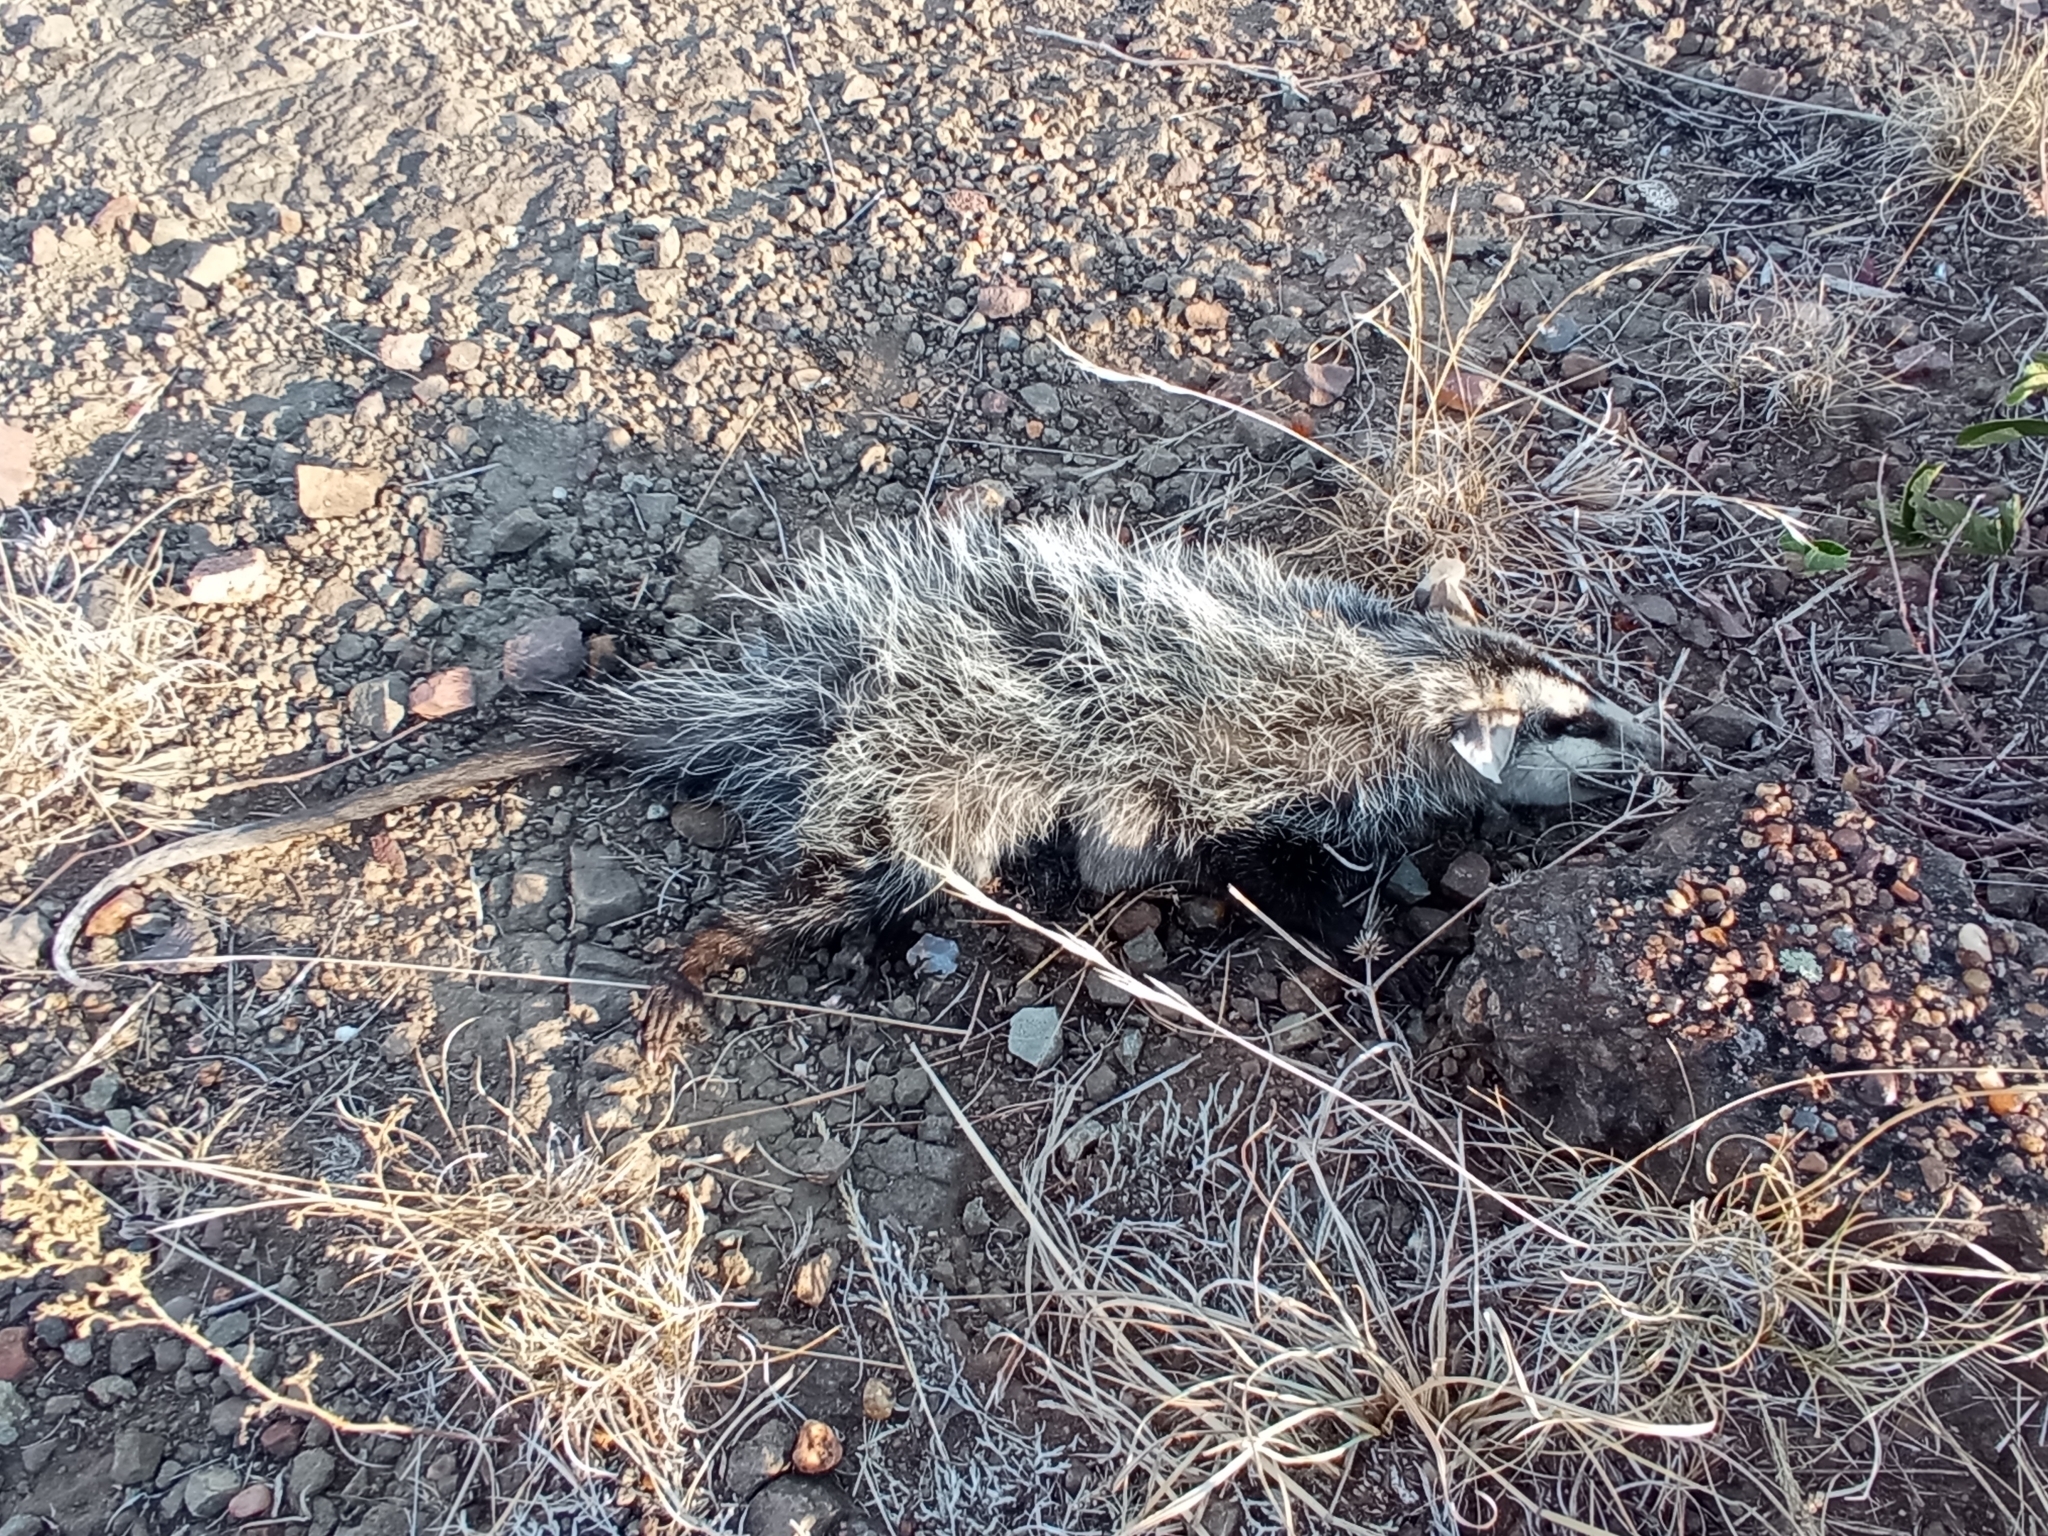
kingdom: Animalia
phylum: Chordata
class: Mammalia
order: Didelphimorphia
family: Didelphidae
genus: Didelphis
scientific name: Didelphis albiventris
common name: White-eared opossum
